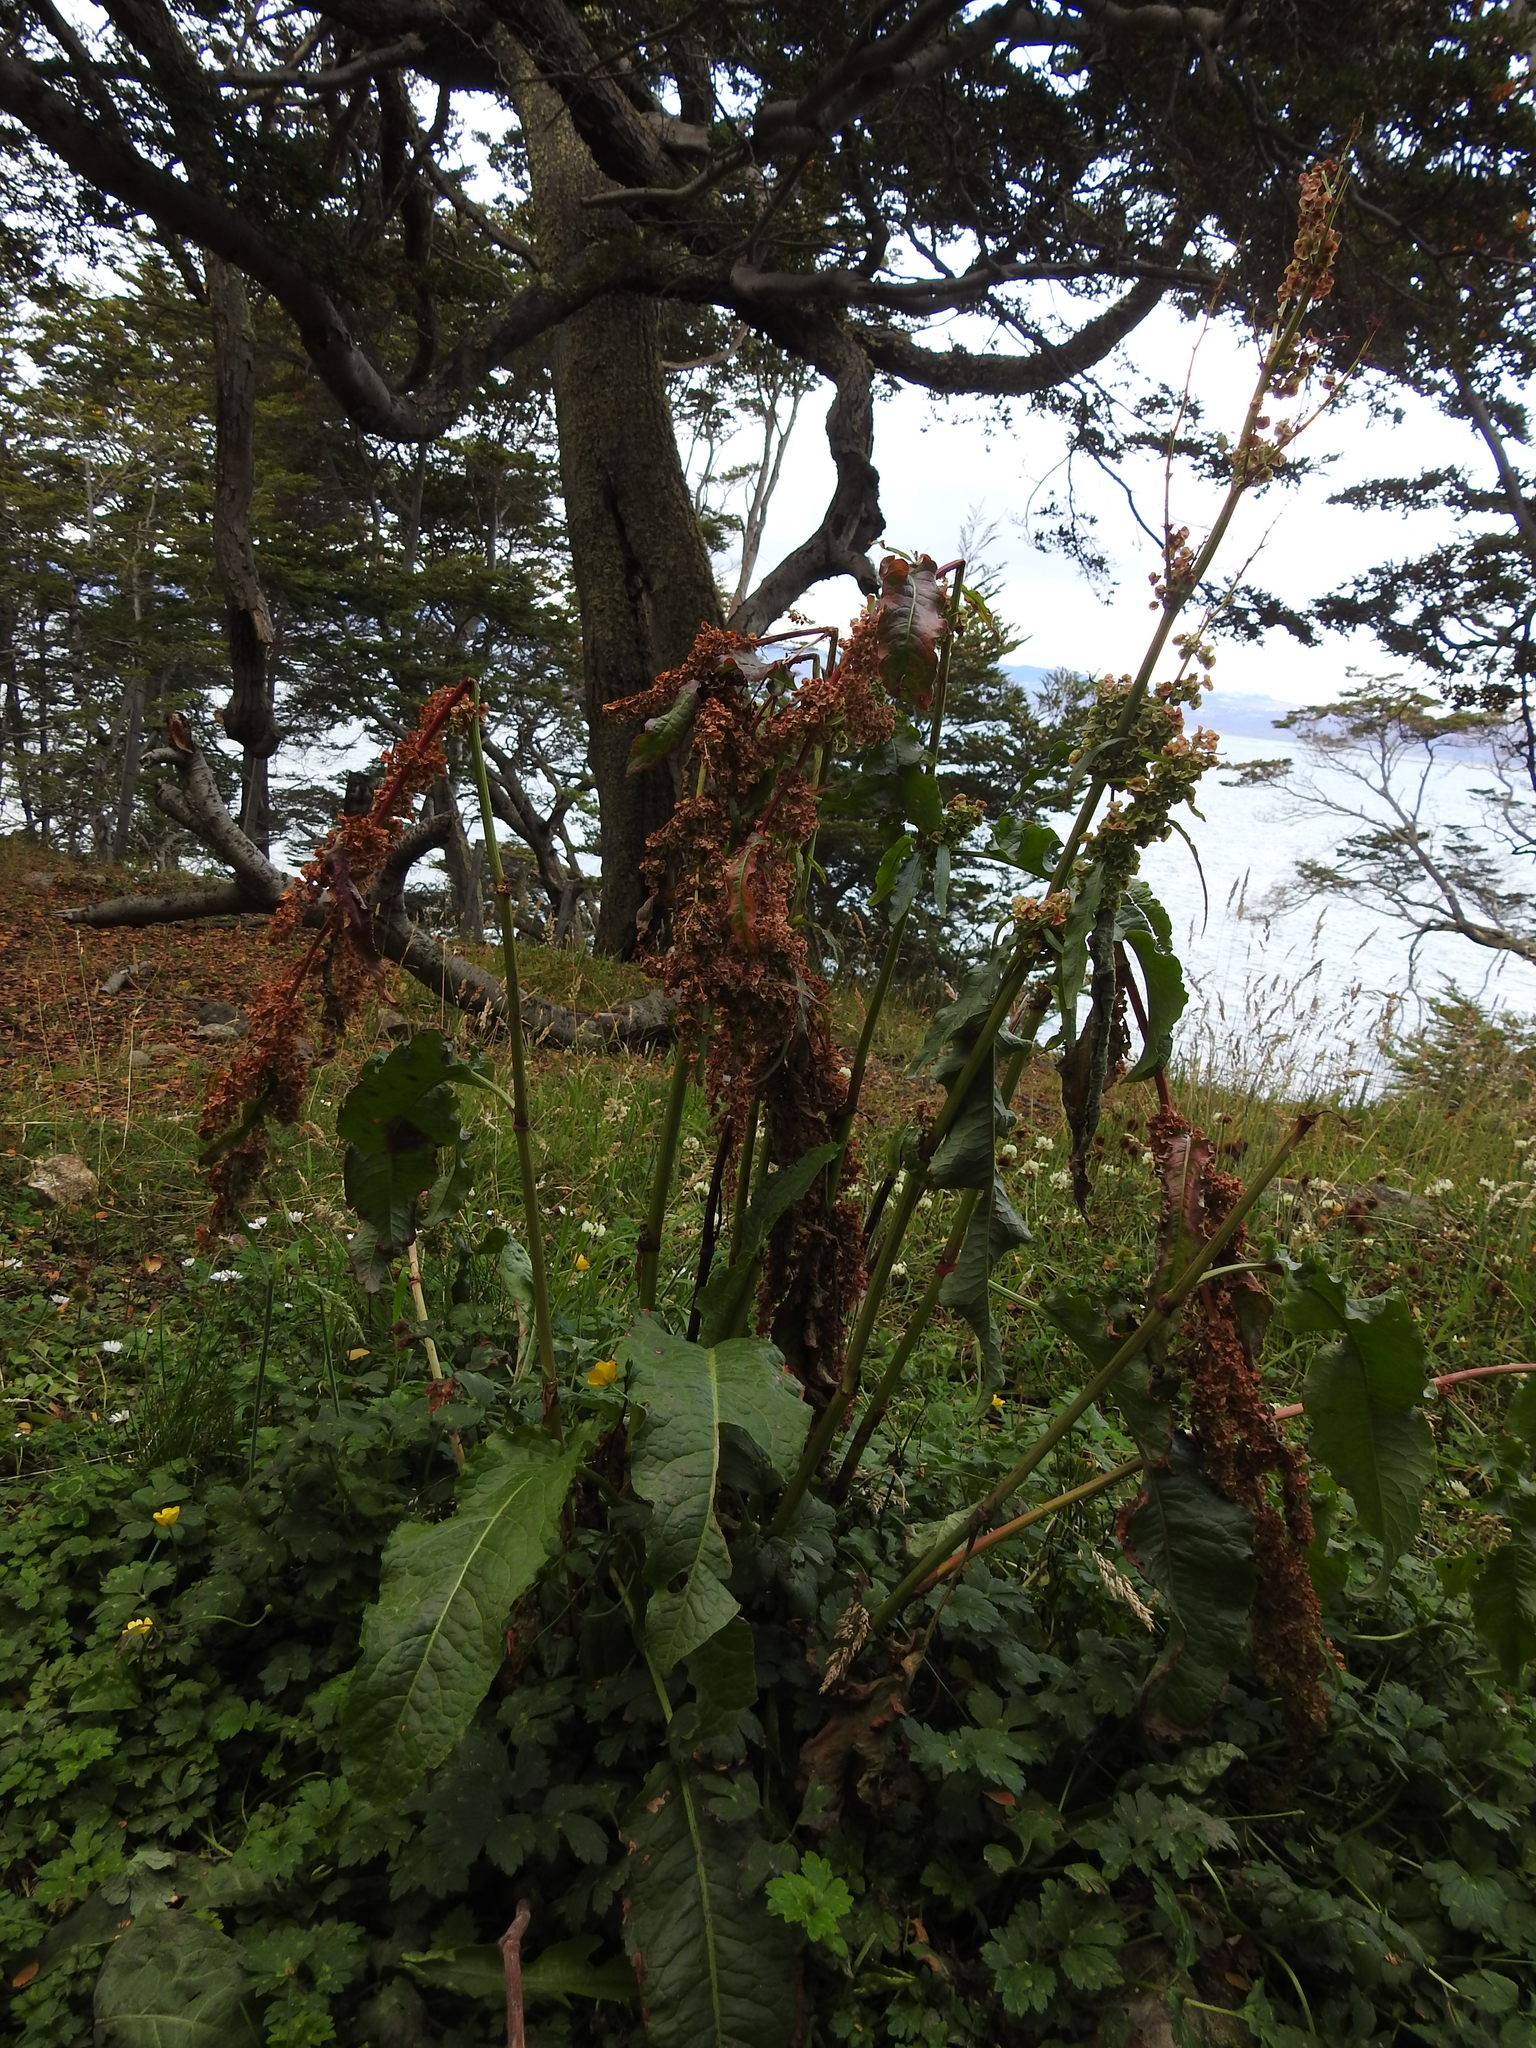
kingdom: Plantae
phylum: Tracheophyta
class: Magnoliopsida
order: Caryophyllales
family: Polygonaceae
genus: Rumex
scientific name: Rumex crispus
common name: Curled dock
